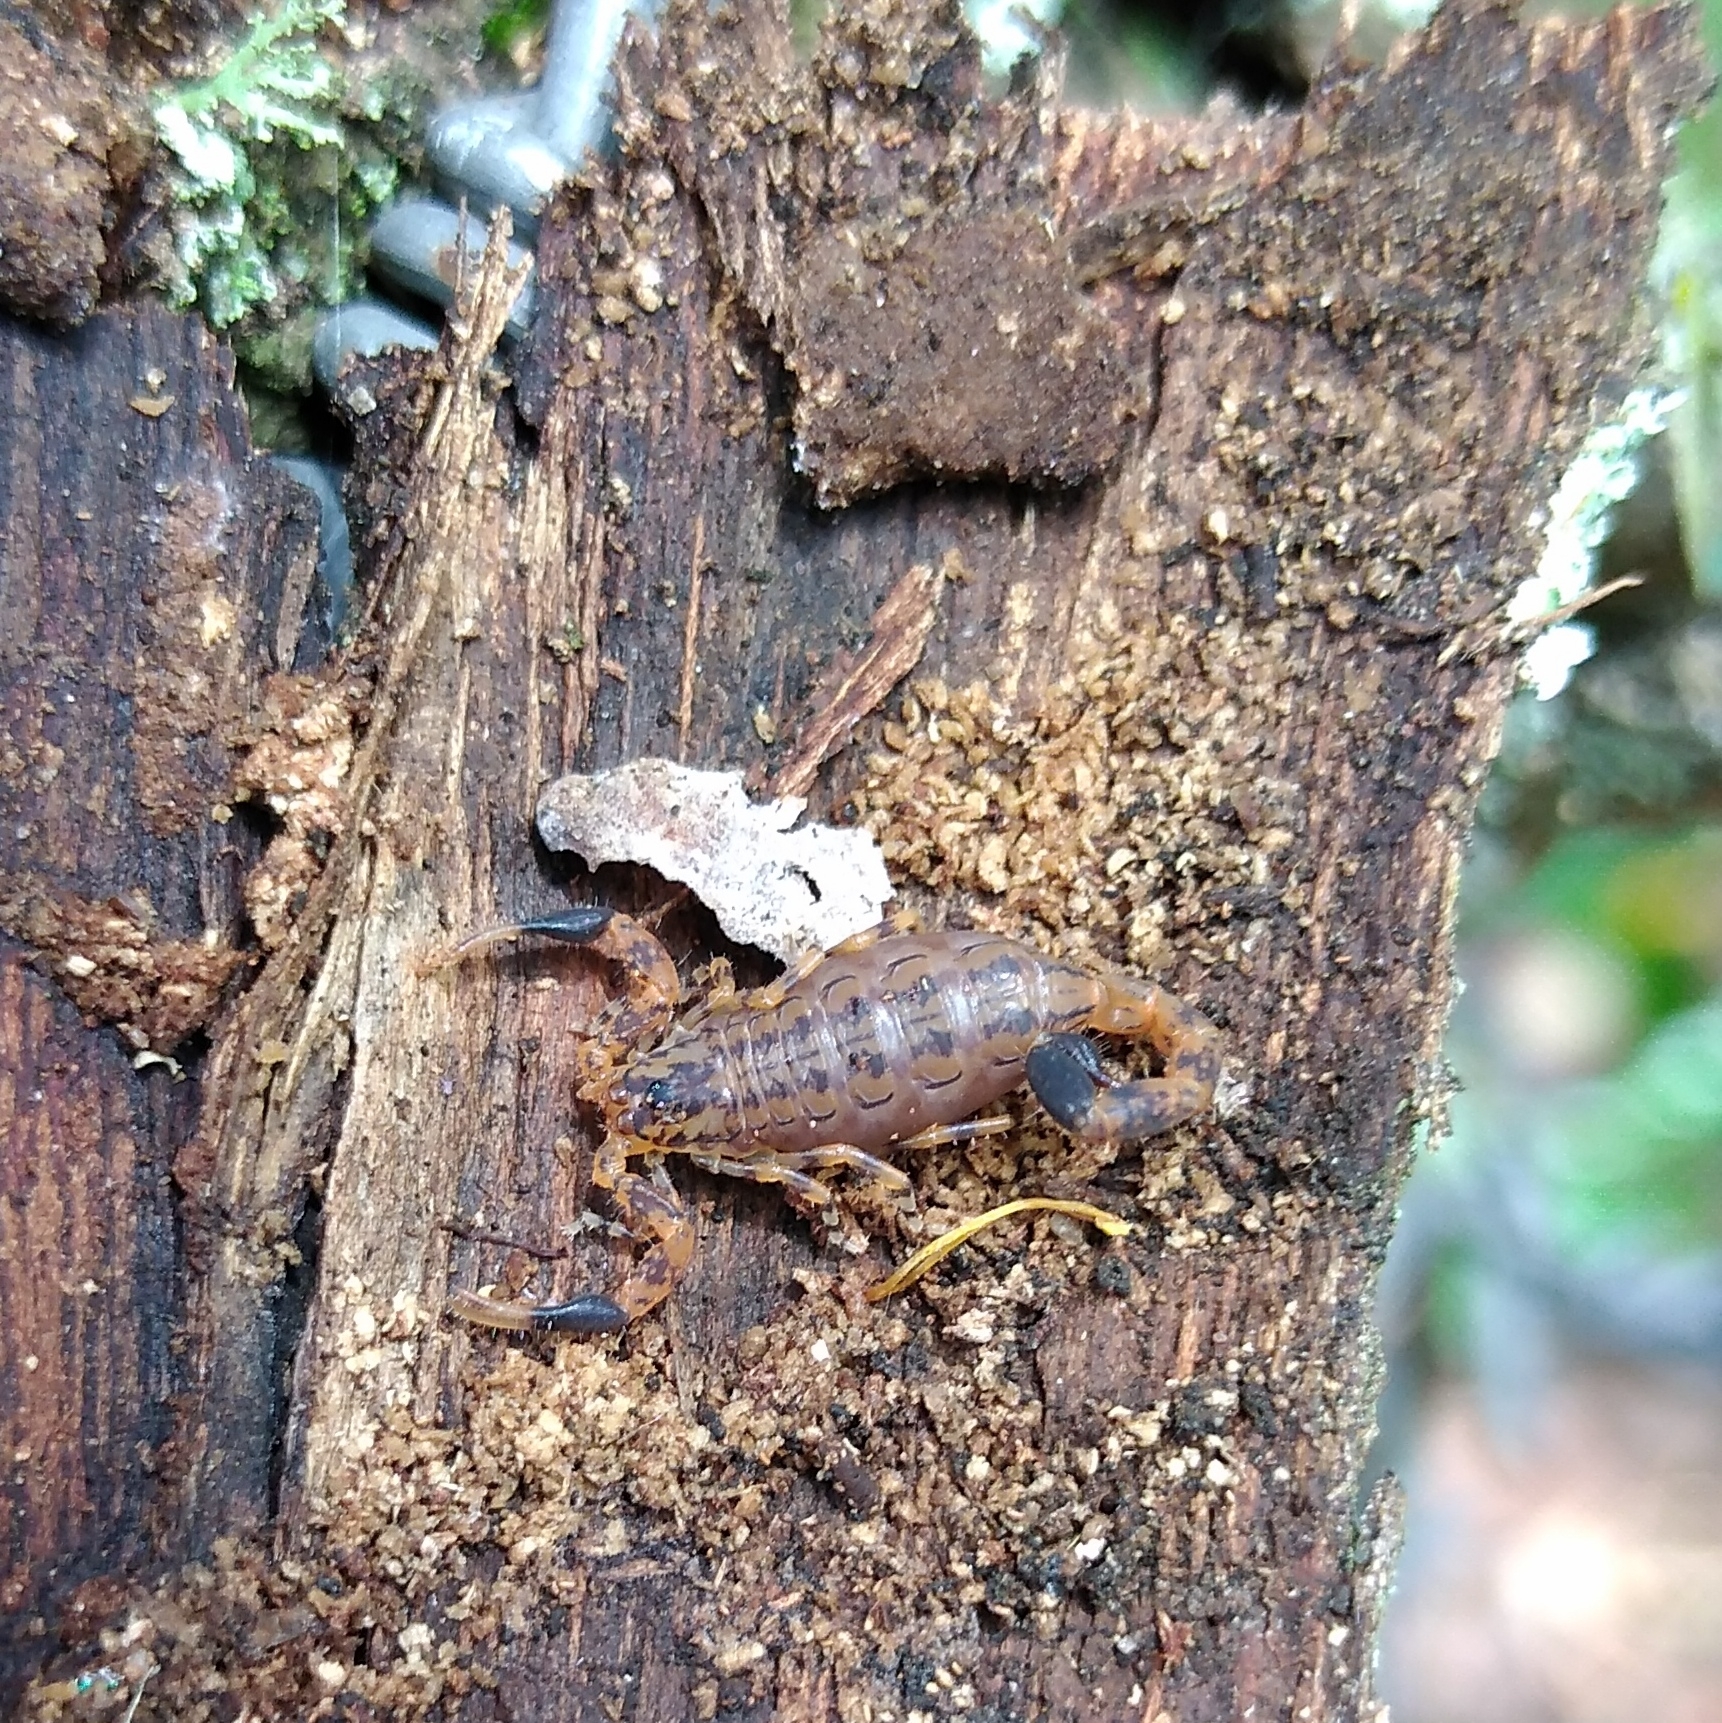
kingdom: Animalia
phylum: Arthropoda
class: Arachnida
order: Scorpiones
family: Buthidae
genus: Uroplectes
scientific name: Uroplectes formosus
